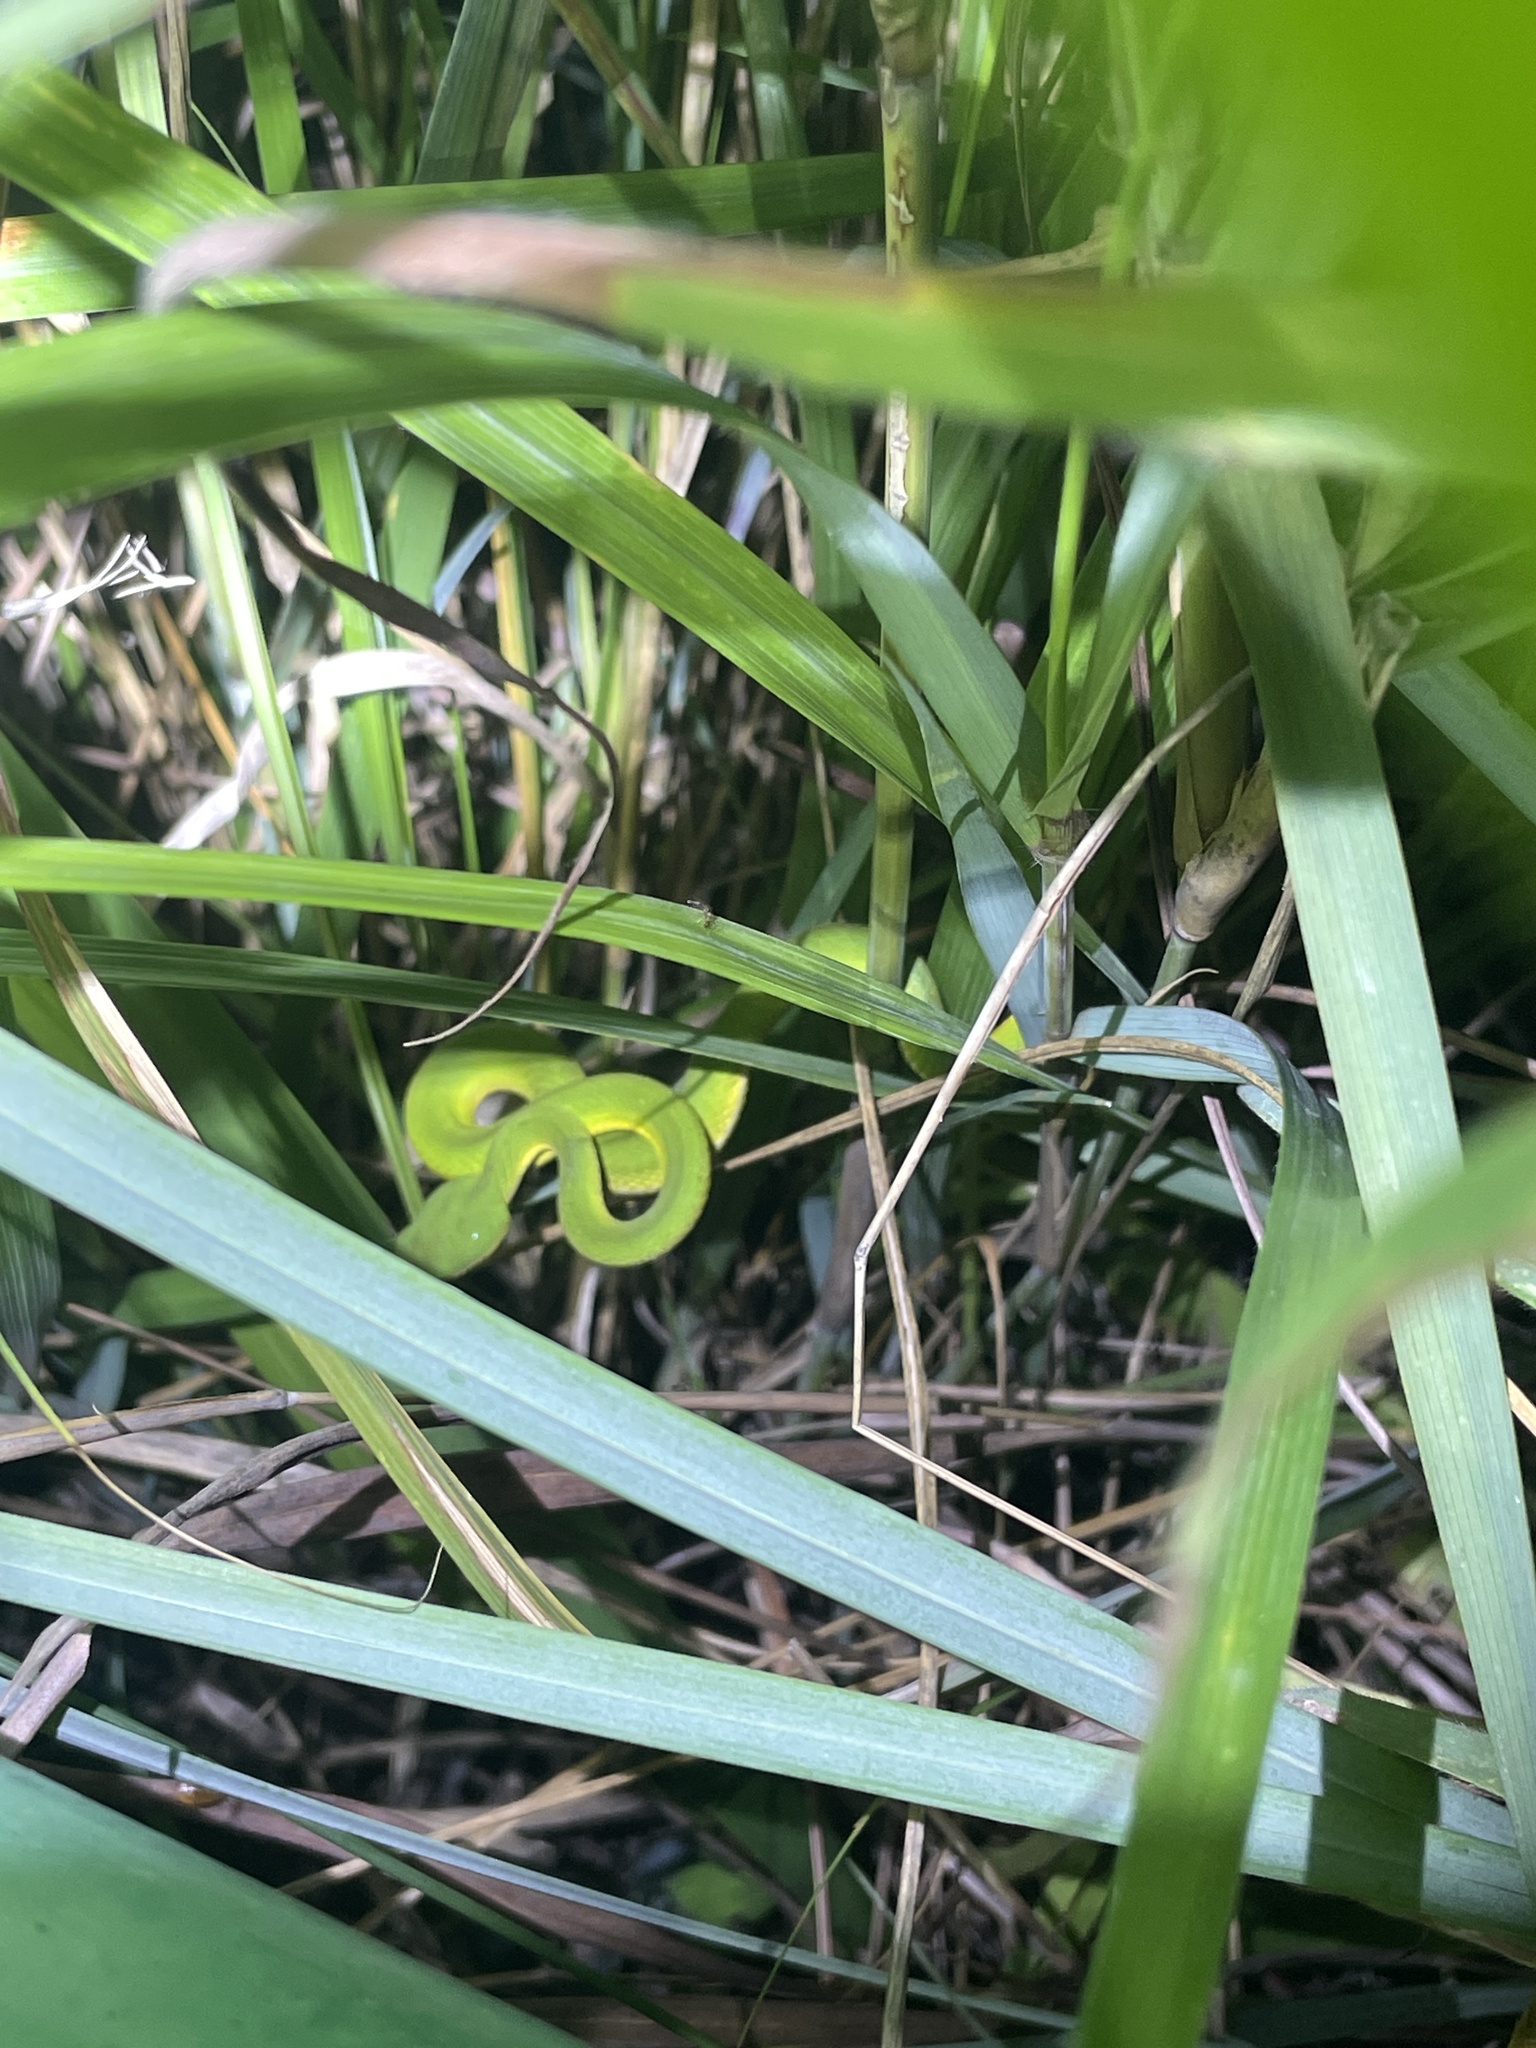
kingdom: Animalia
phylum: Chordata
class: Squamata
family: Viperidae
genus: Trimeresurus
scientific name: Trimeresurus albolabris
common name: White-lipped pitviper
